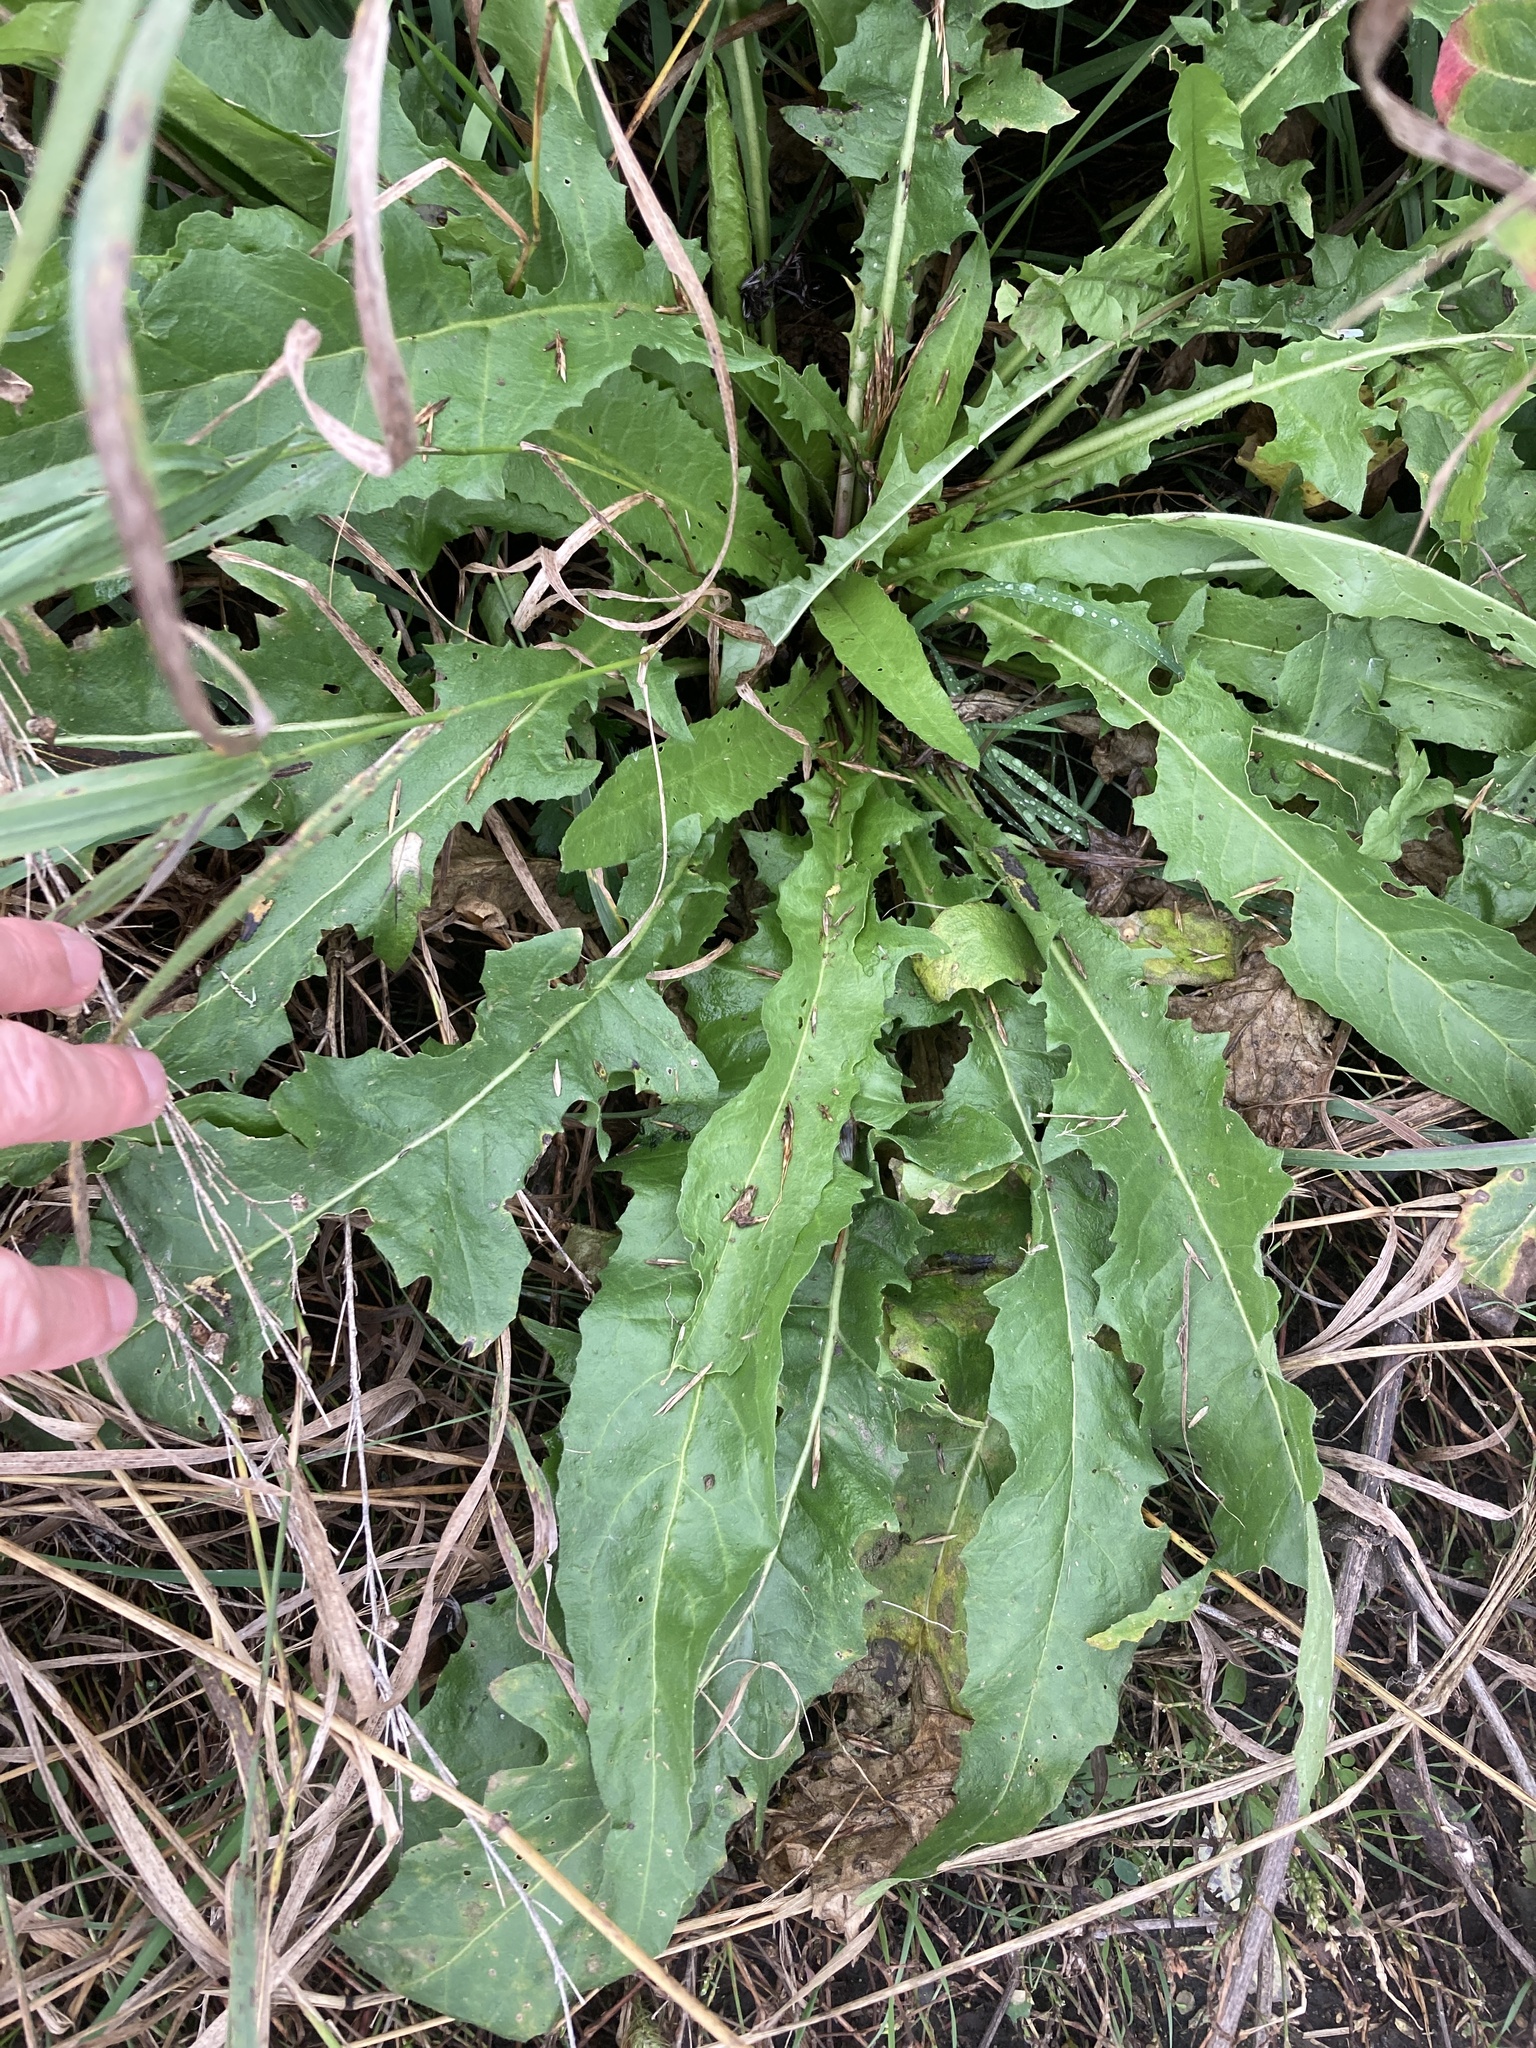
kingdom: Plantae
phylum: Tracheophyta
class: Magnoliopsida
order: Brassicales
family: Brassicaceae
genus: Bunias
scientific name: Bunias orientalis
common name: Warty-cabbage
